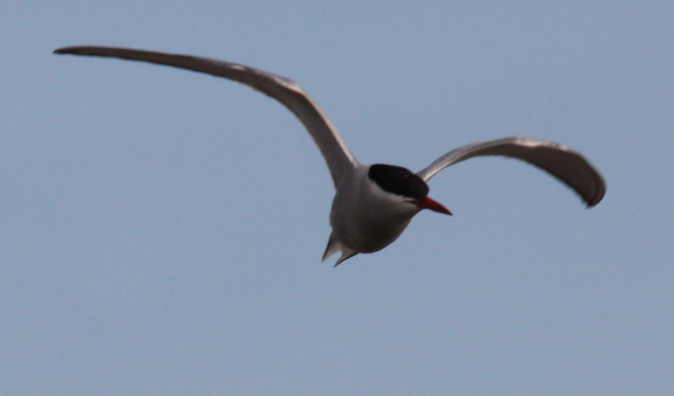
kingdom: Animalia
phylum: Chordata
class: Aves
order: Charadriiformes
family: Laridae
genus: Sterna
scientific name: Sterna hirundo
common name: Common tern
